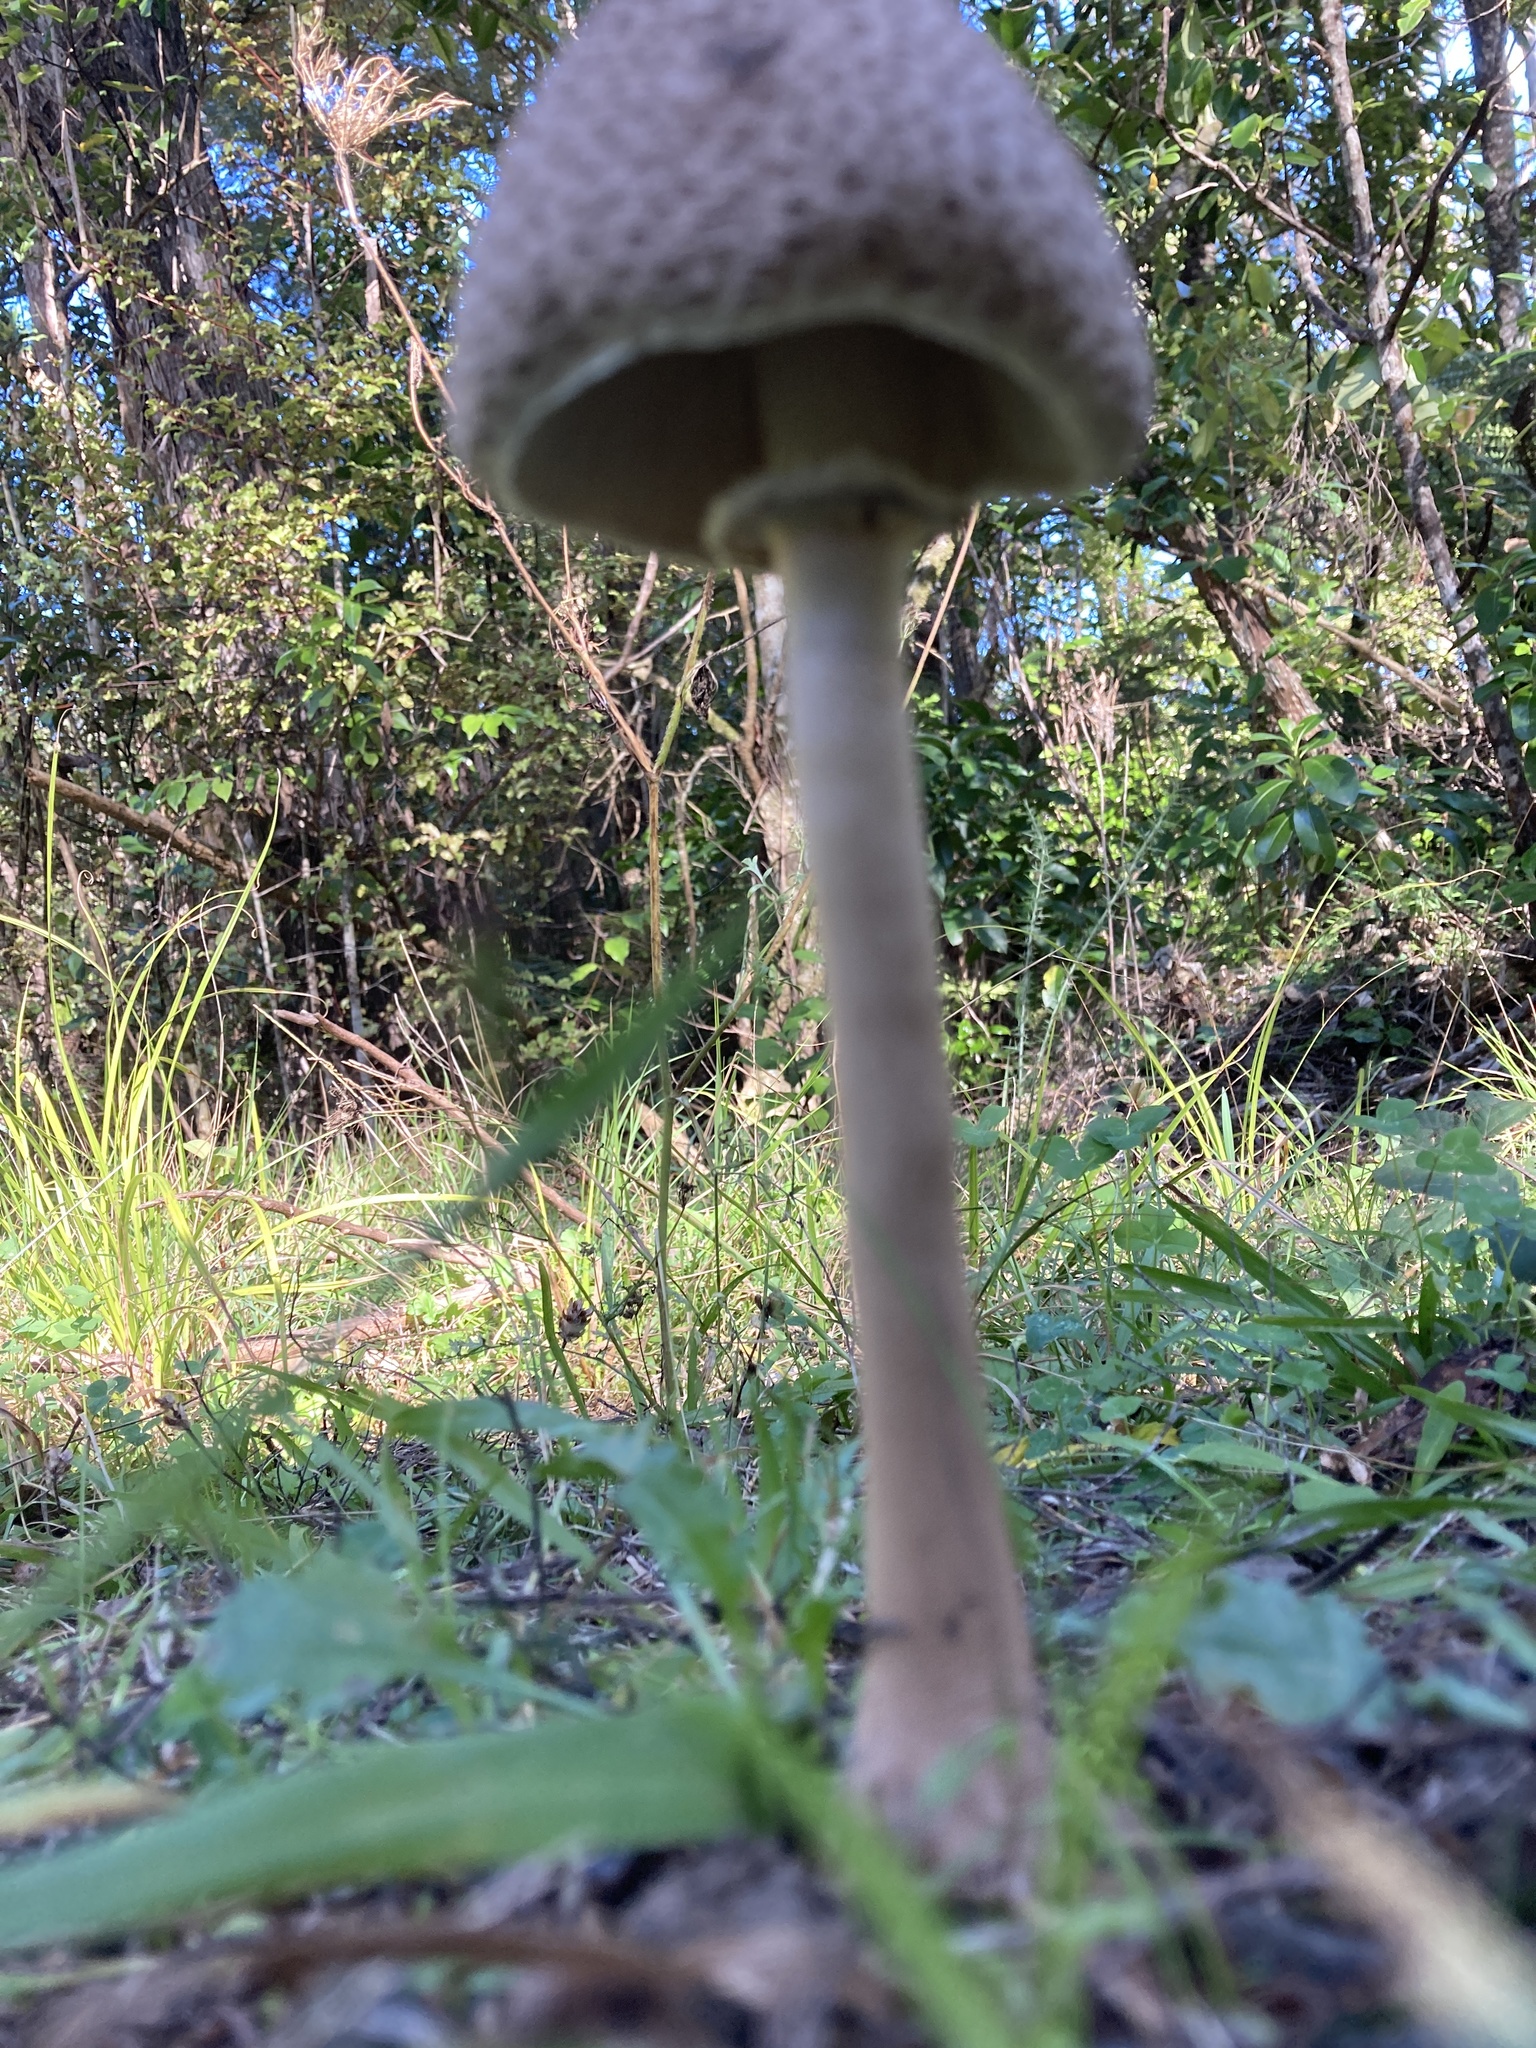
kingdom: Fungi
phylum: Basidiomycota
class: Agaricomycetes
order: Agaricales
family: Agaricaceae
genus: Macrolepiota
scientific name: Macrolepiota clelandii
